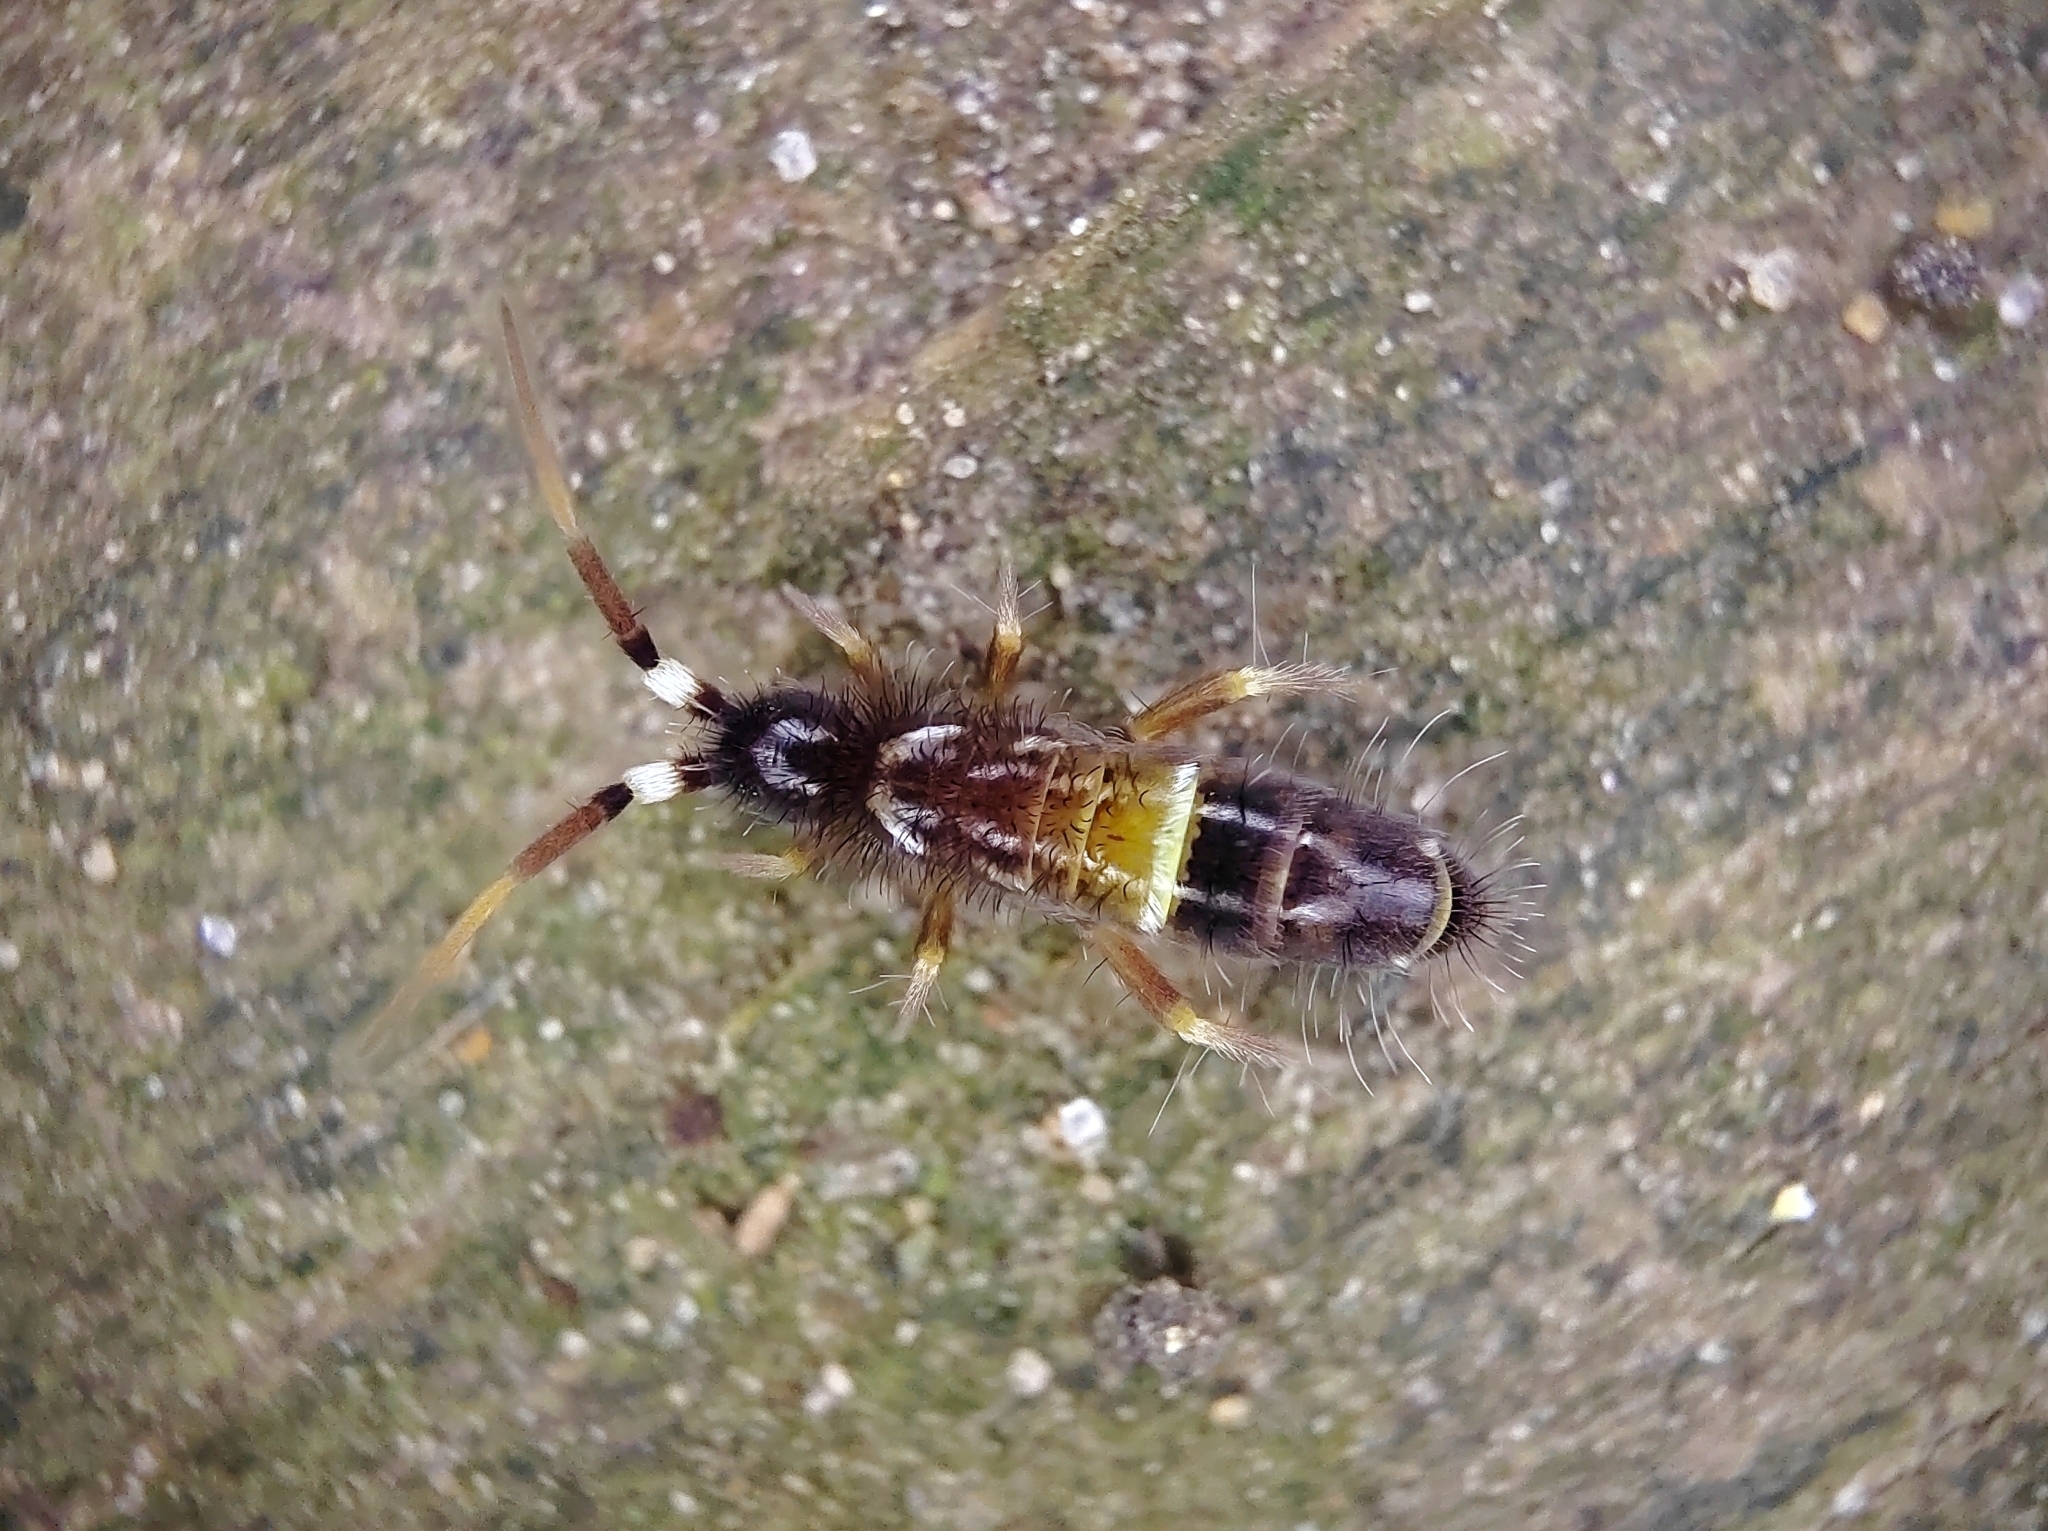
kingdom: Animalia
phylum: Arthropoda
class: Collembola
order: Entomobryomorpha
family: Orchesellidae
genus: Orchesella
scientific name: Orchesella cincta
